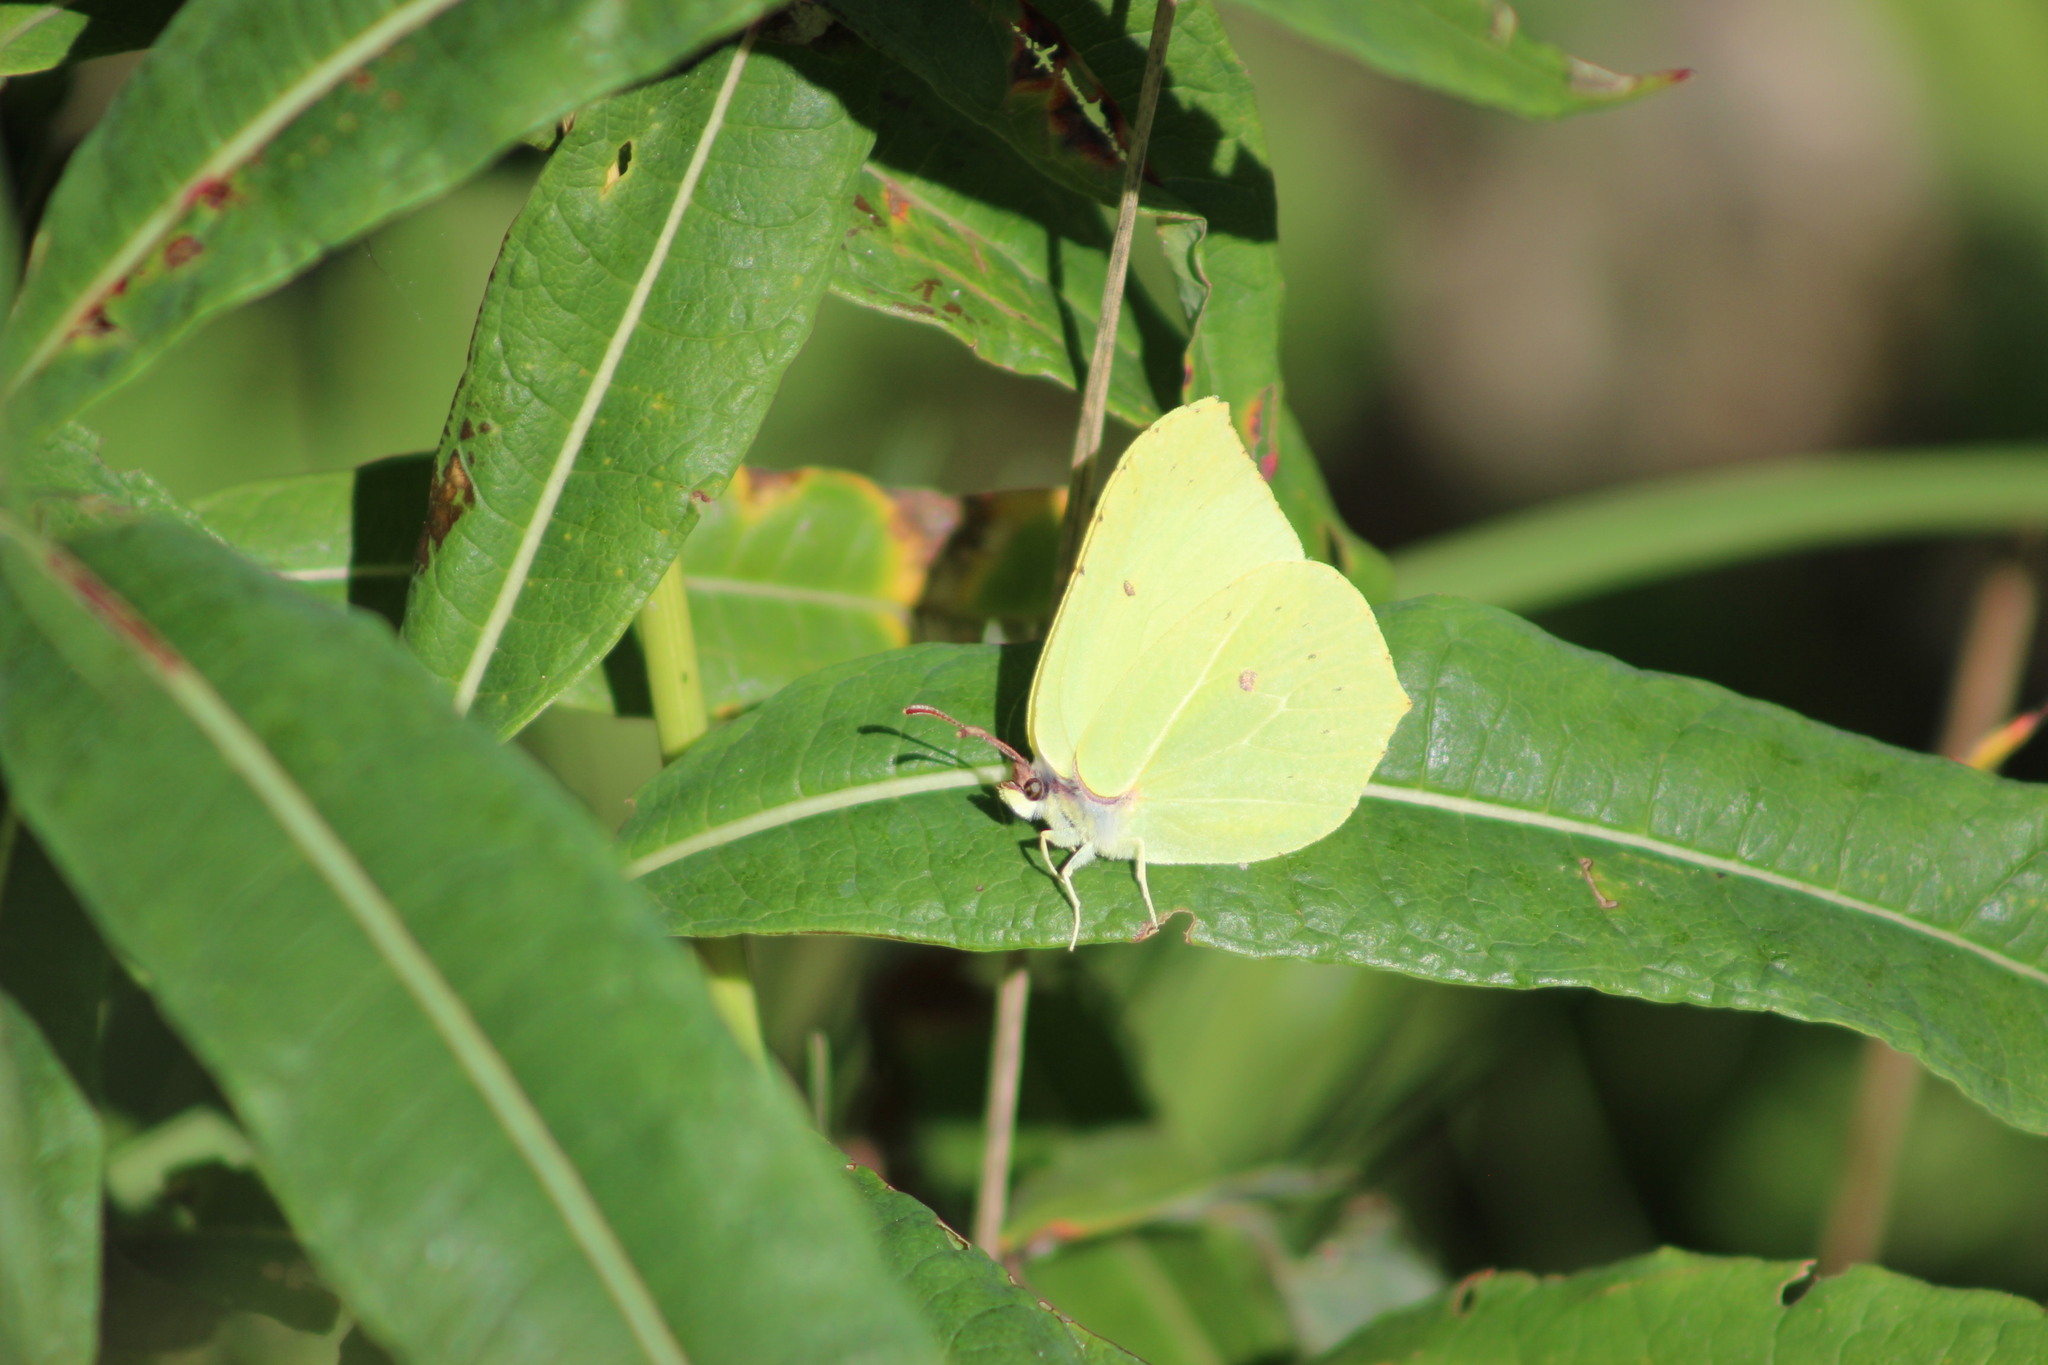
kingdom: Animalia
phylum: Arthropoda
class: Insecta
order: Lepidoptera
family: Pieridae
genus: Gonepteryx
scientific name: Gonepteryx rhamni
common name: Brimstone
